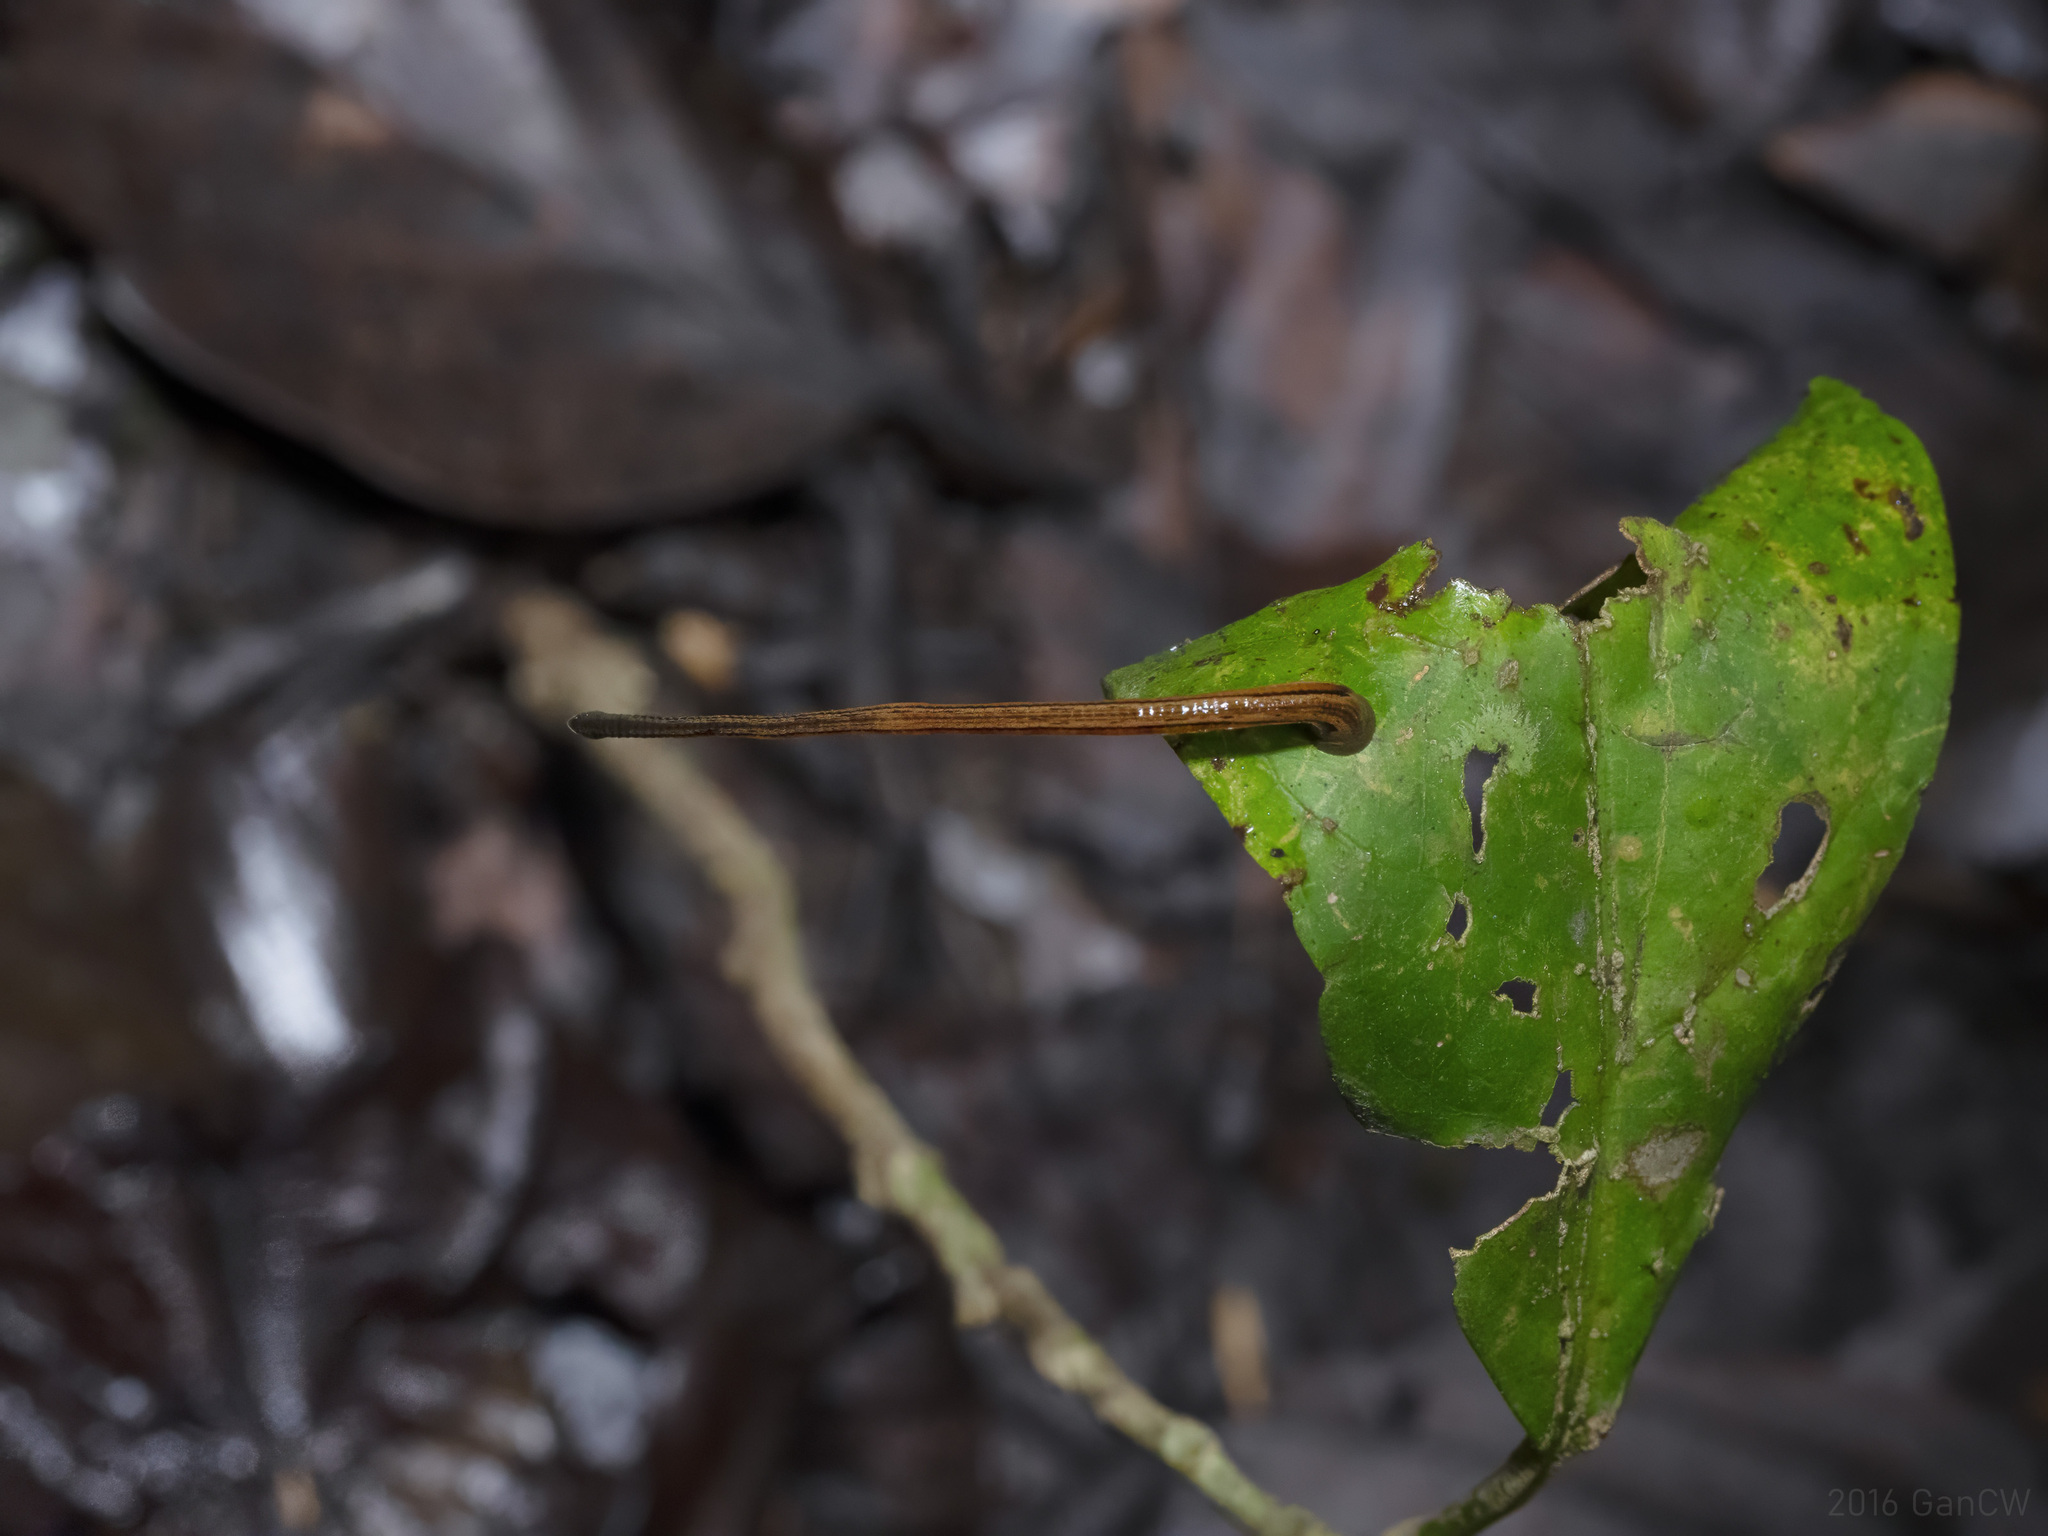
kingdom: Animalia
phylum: Annelida
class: Clitellata
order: Arhynchobdellida
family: Haemadipsidae
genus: Haemadipsa
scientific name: Haemadipsa picta
